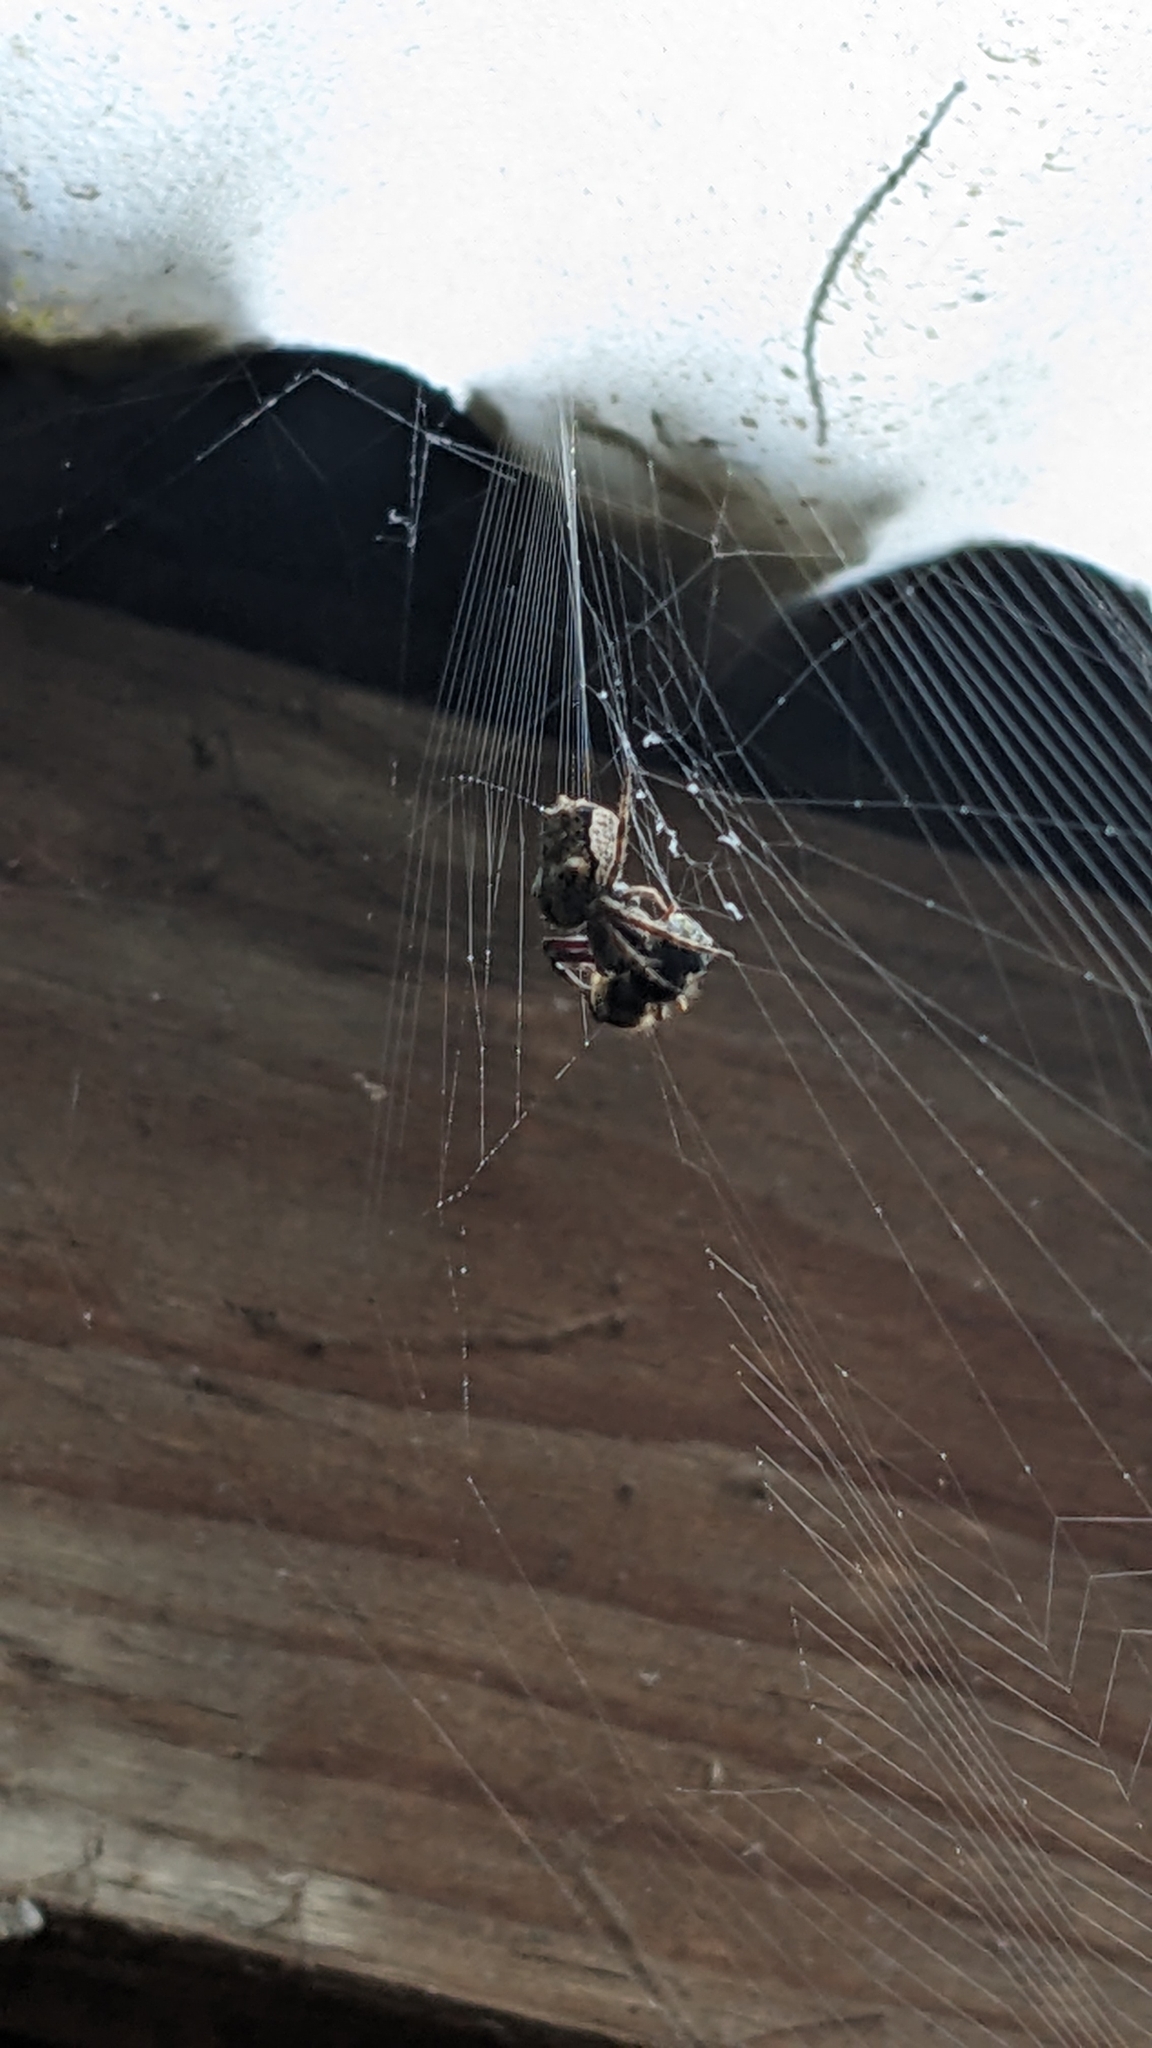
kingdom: Animalia
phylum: Arthropoda
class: Arachnida
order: Araneae
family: Araneidae
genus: Eriophora
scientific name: Eriophora pustulosa
